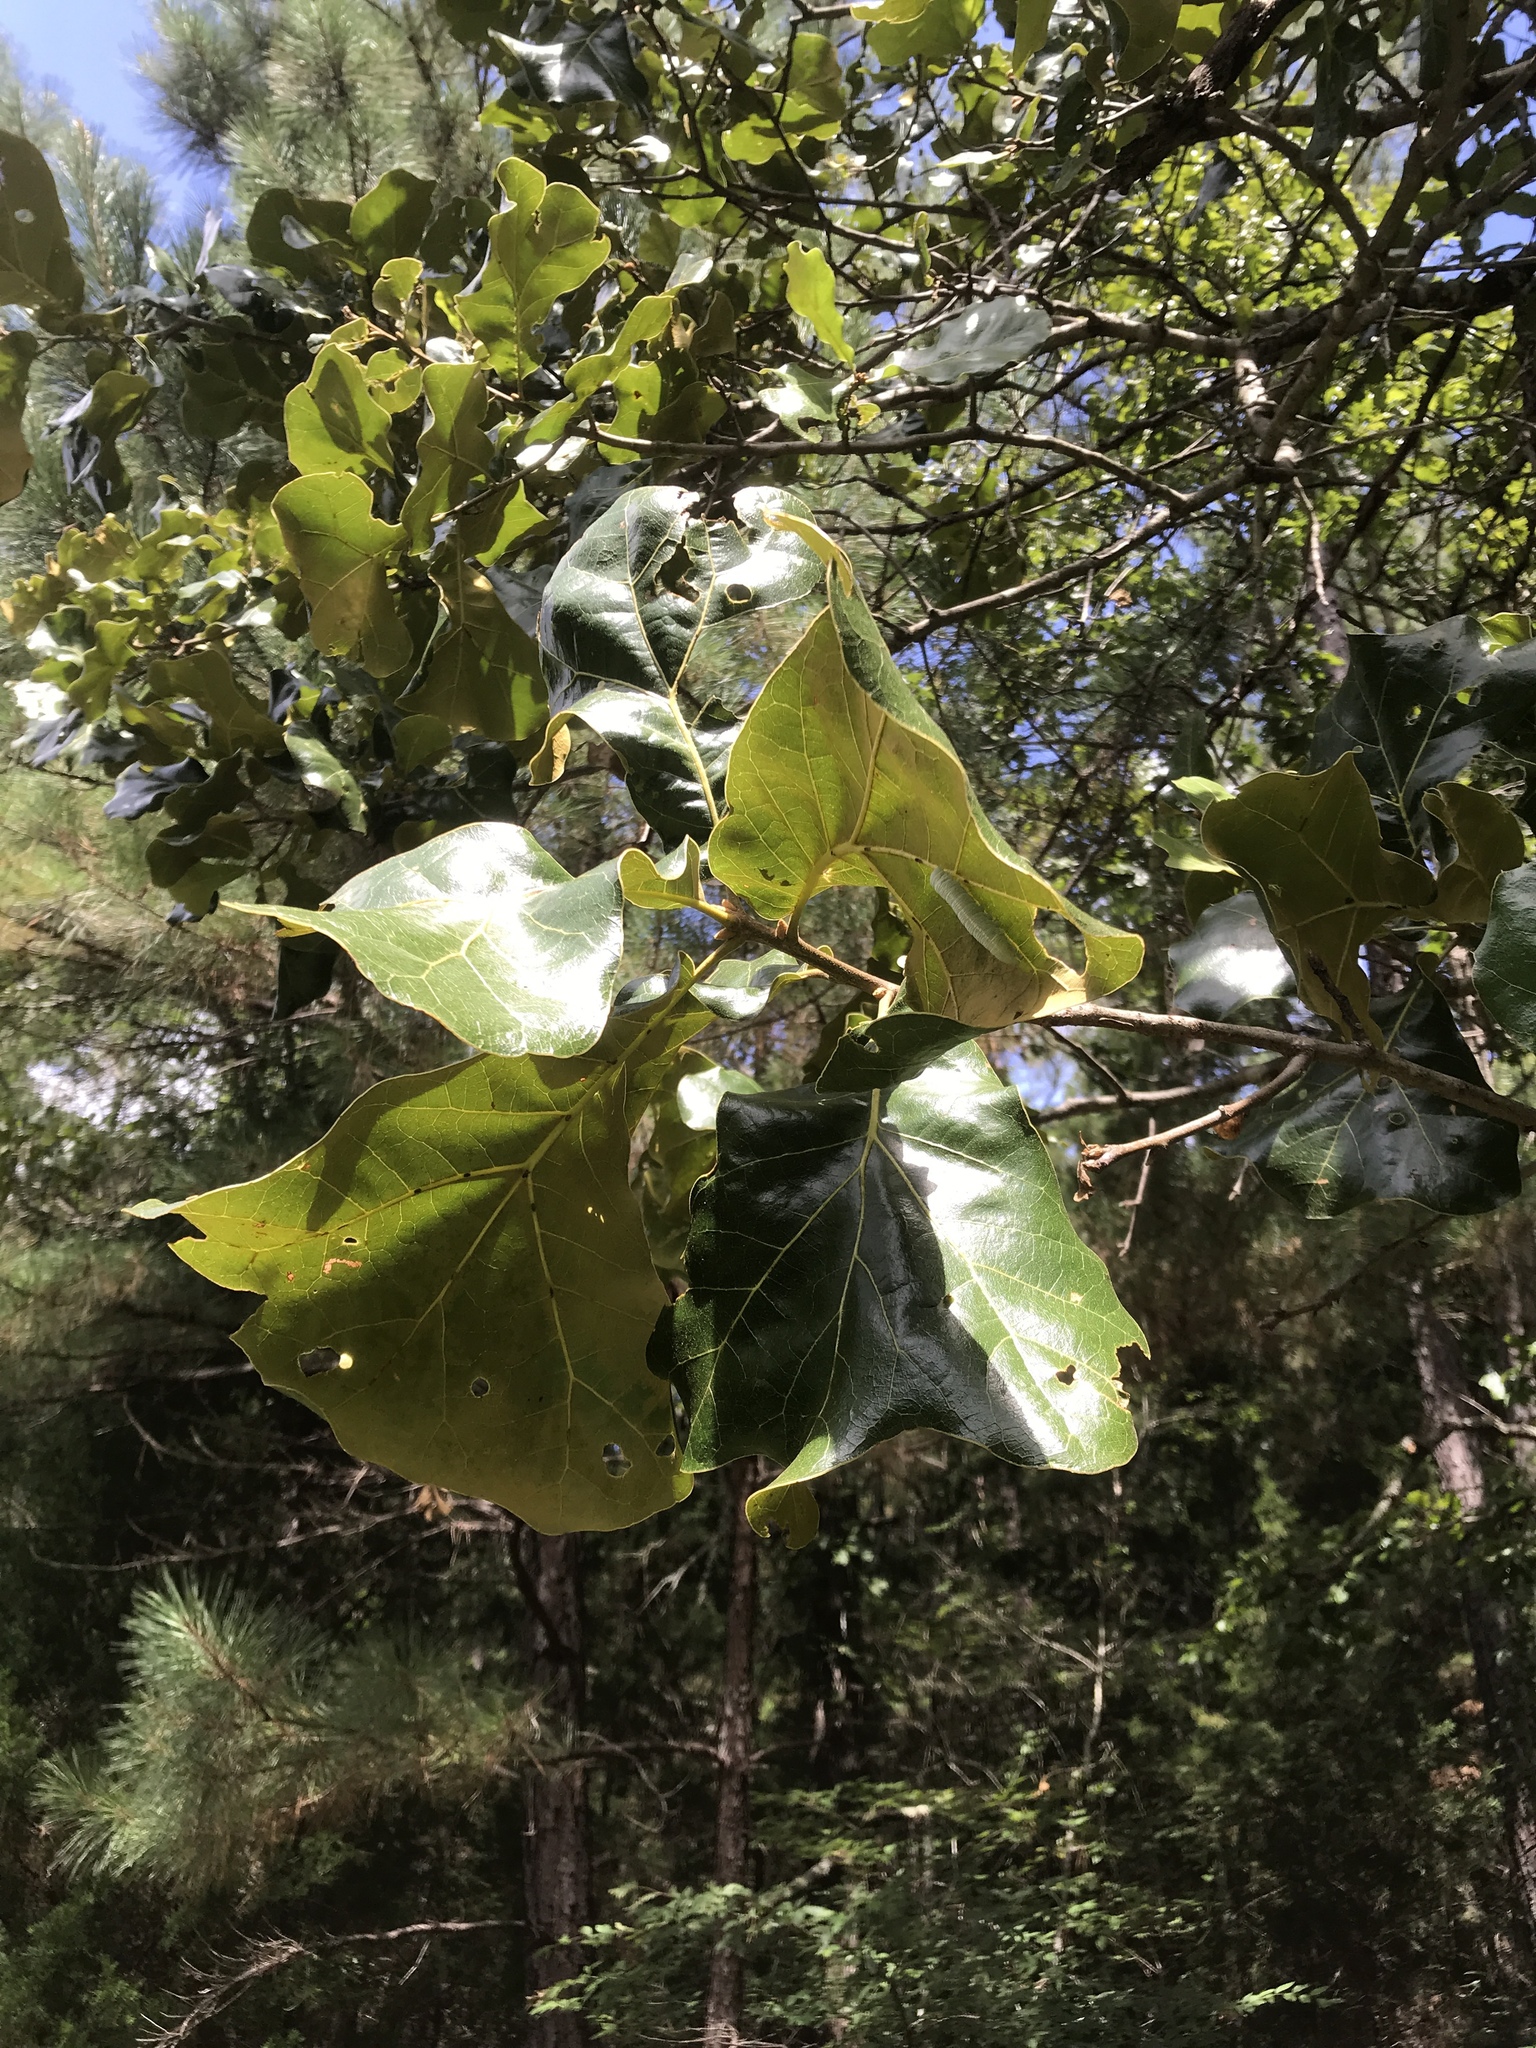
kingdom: Plantae
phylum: Tracheophyta
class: Magnoliopsida
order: Fagales
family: Fagaceae
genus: Quercus
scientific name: Quercus marilandica
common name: Blackjack oak
